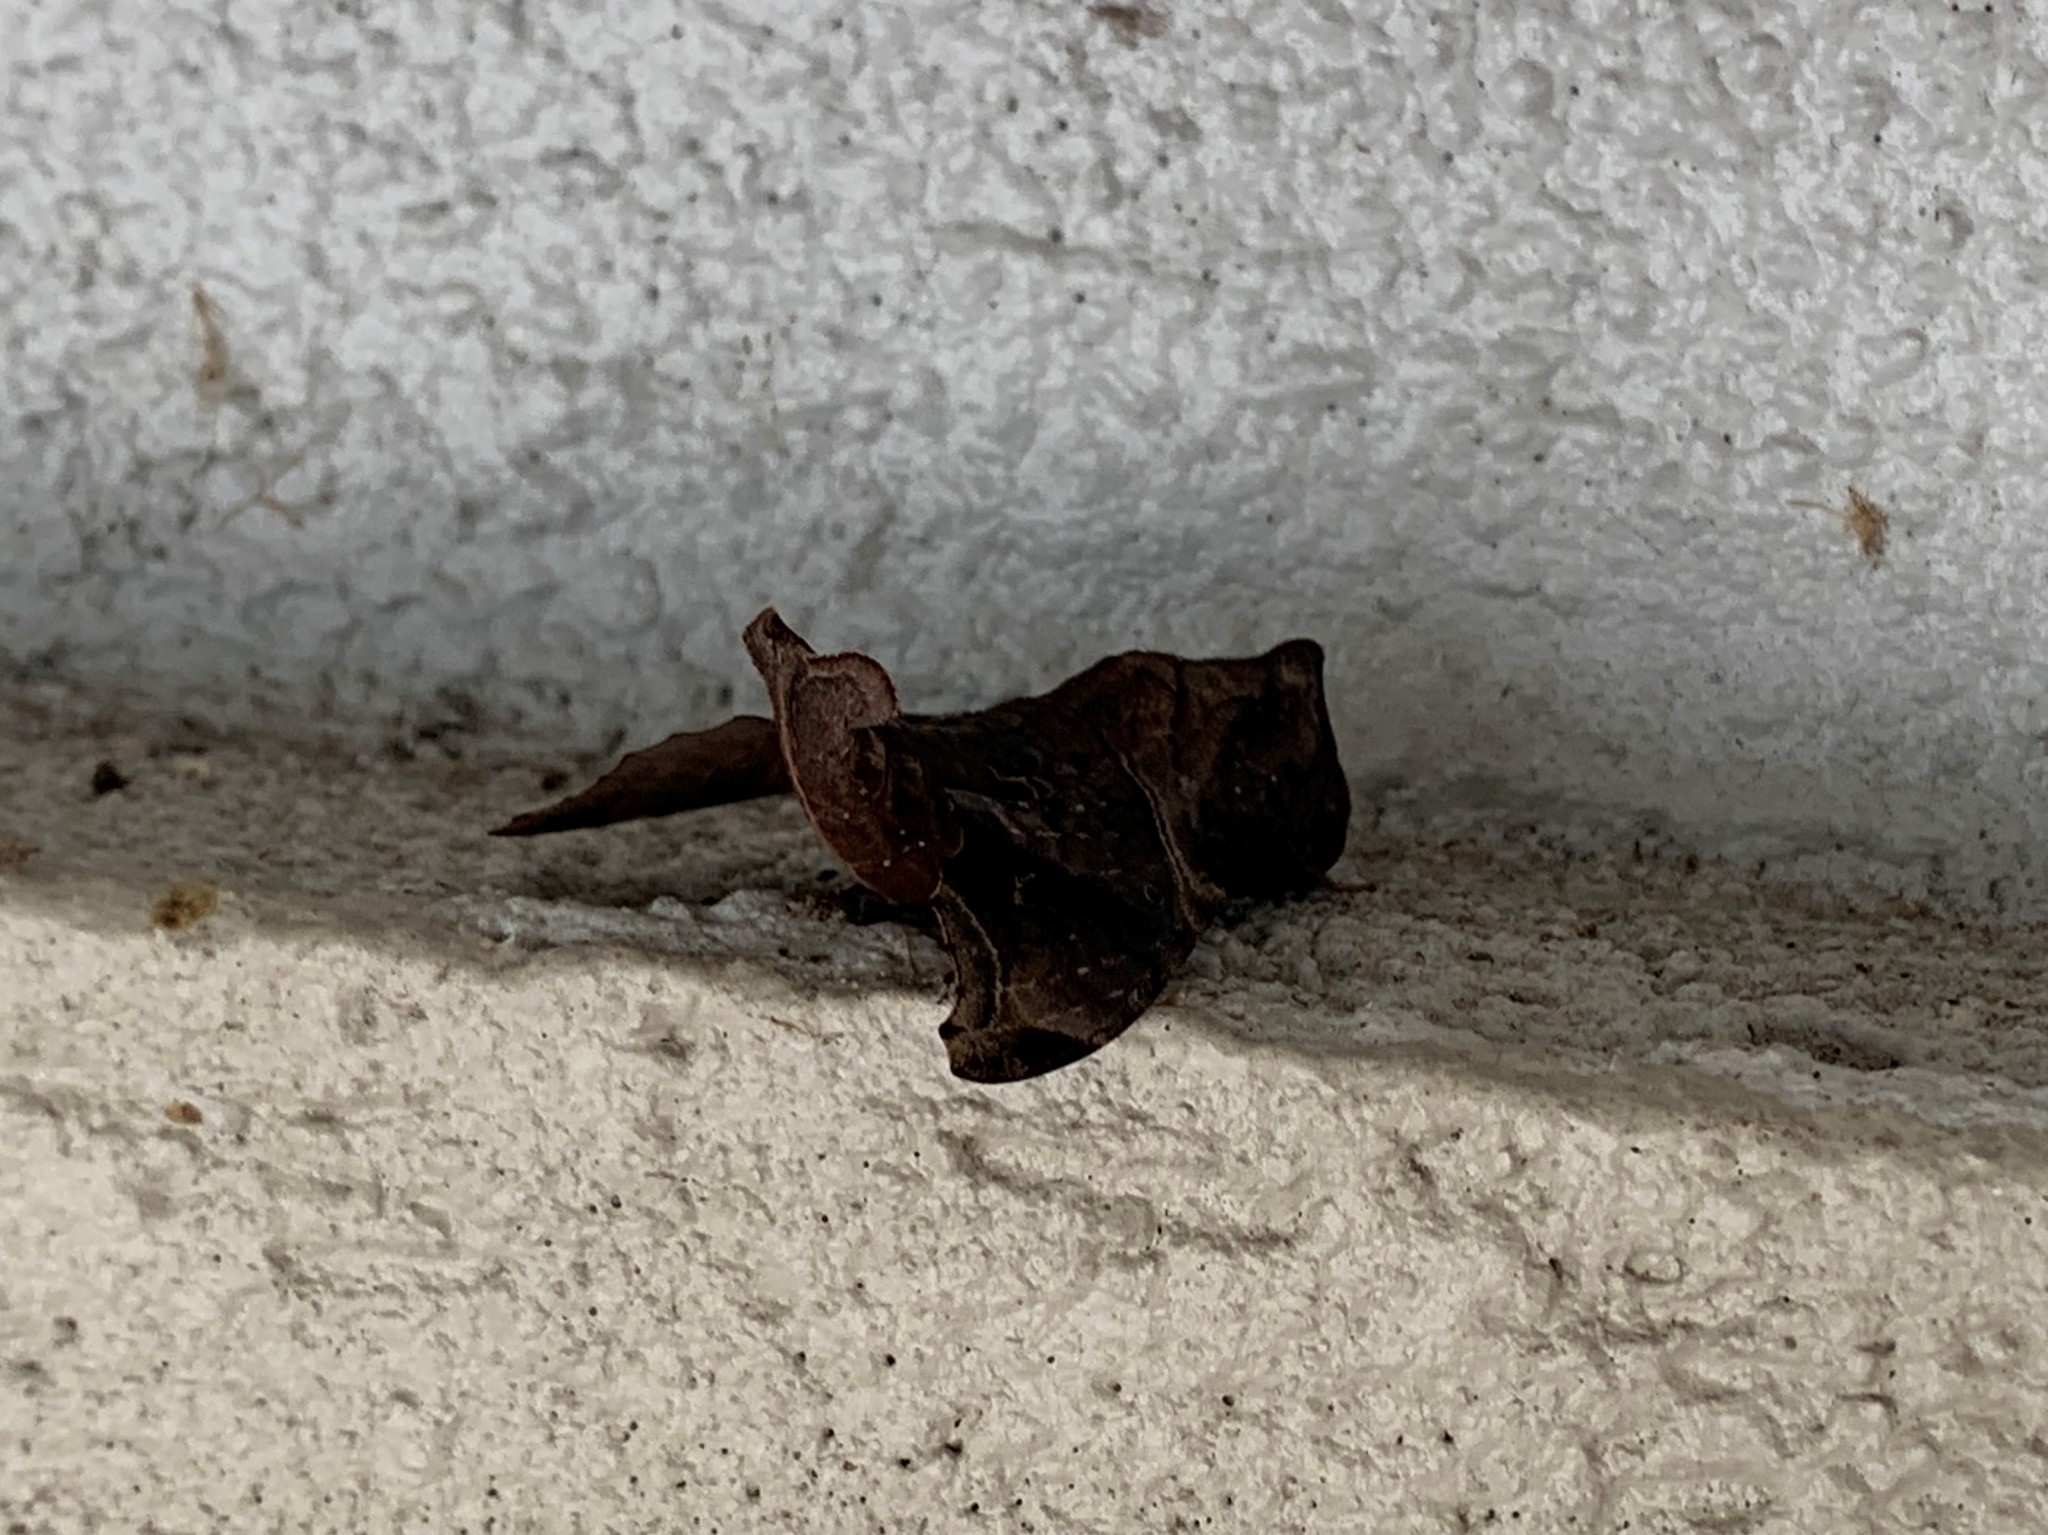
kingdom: Animalia
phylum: Arthropoda
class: Insecta
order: Lepidoptera
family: Sphingidae
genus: Enyo
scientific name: Enyo lugubris
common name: Mournful sphinx
